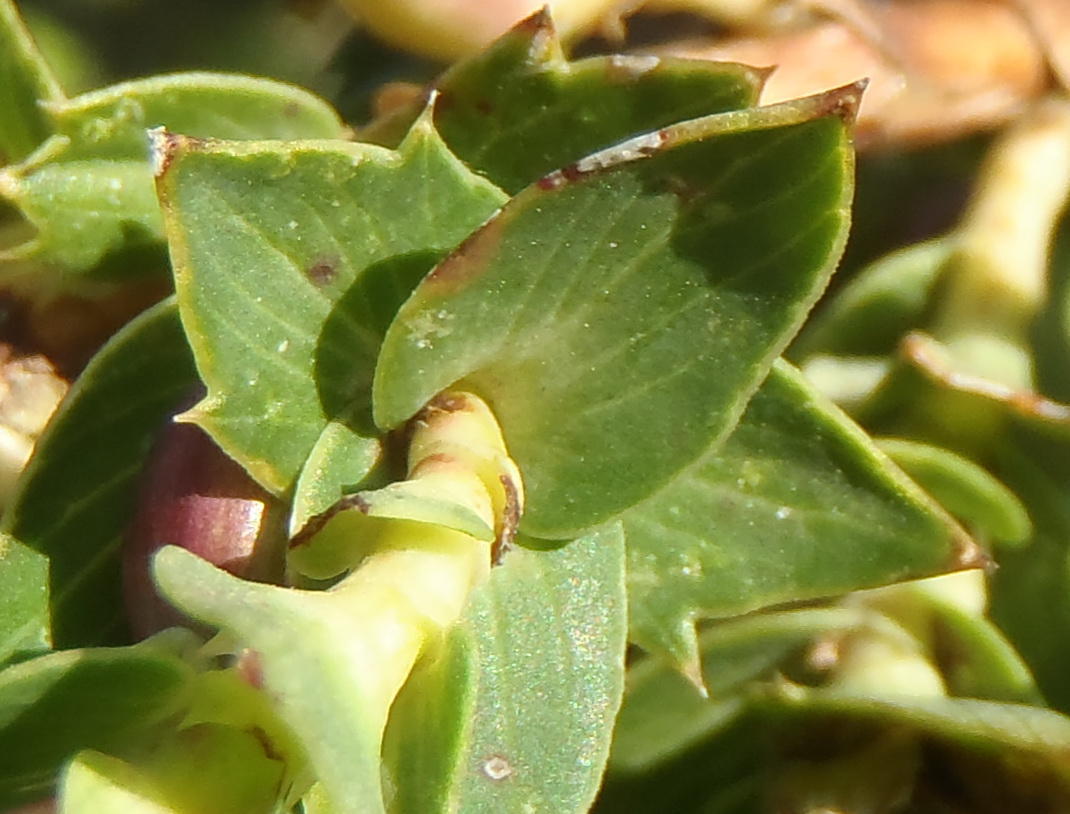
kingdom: Plantae
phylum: Tracheophyta
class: Magnoliopsida
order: Rosales
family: Rosaceae
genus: Cliffortia
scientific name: Cliffortia ilicifolia
